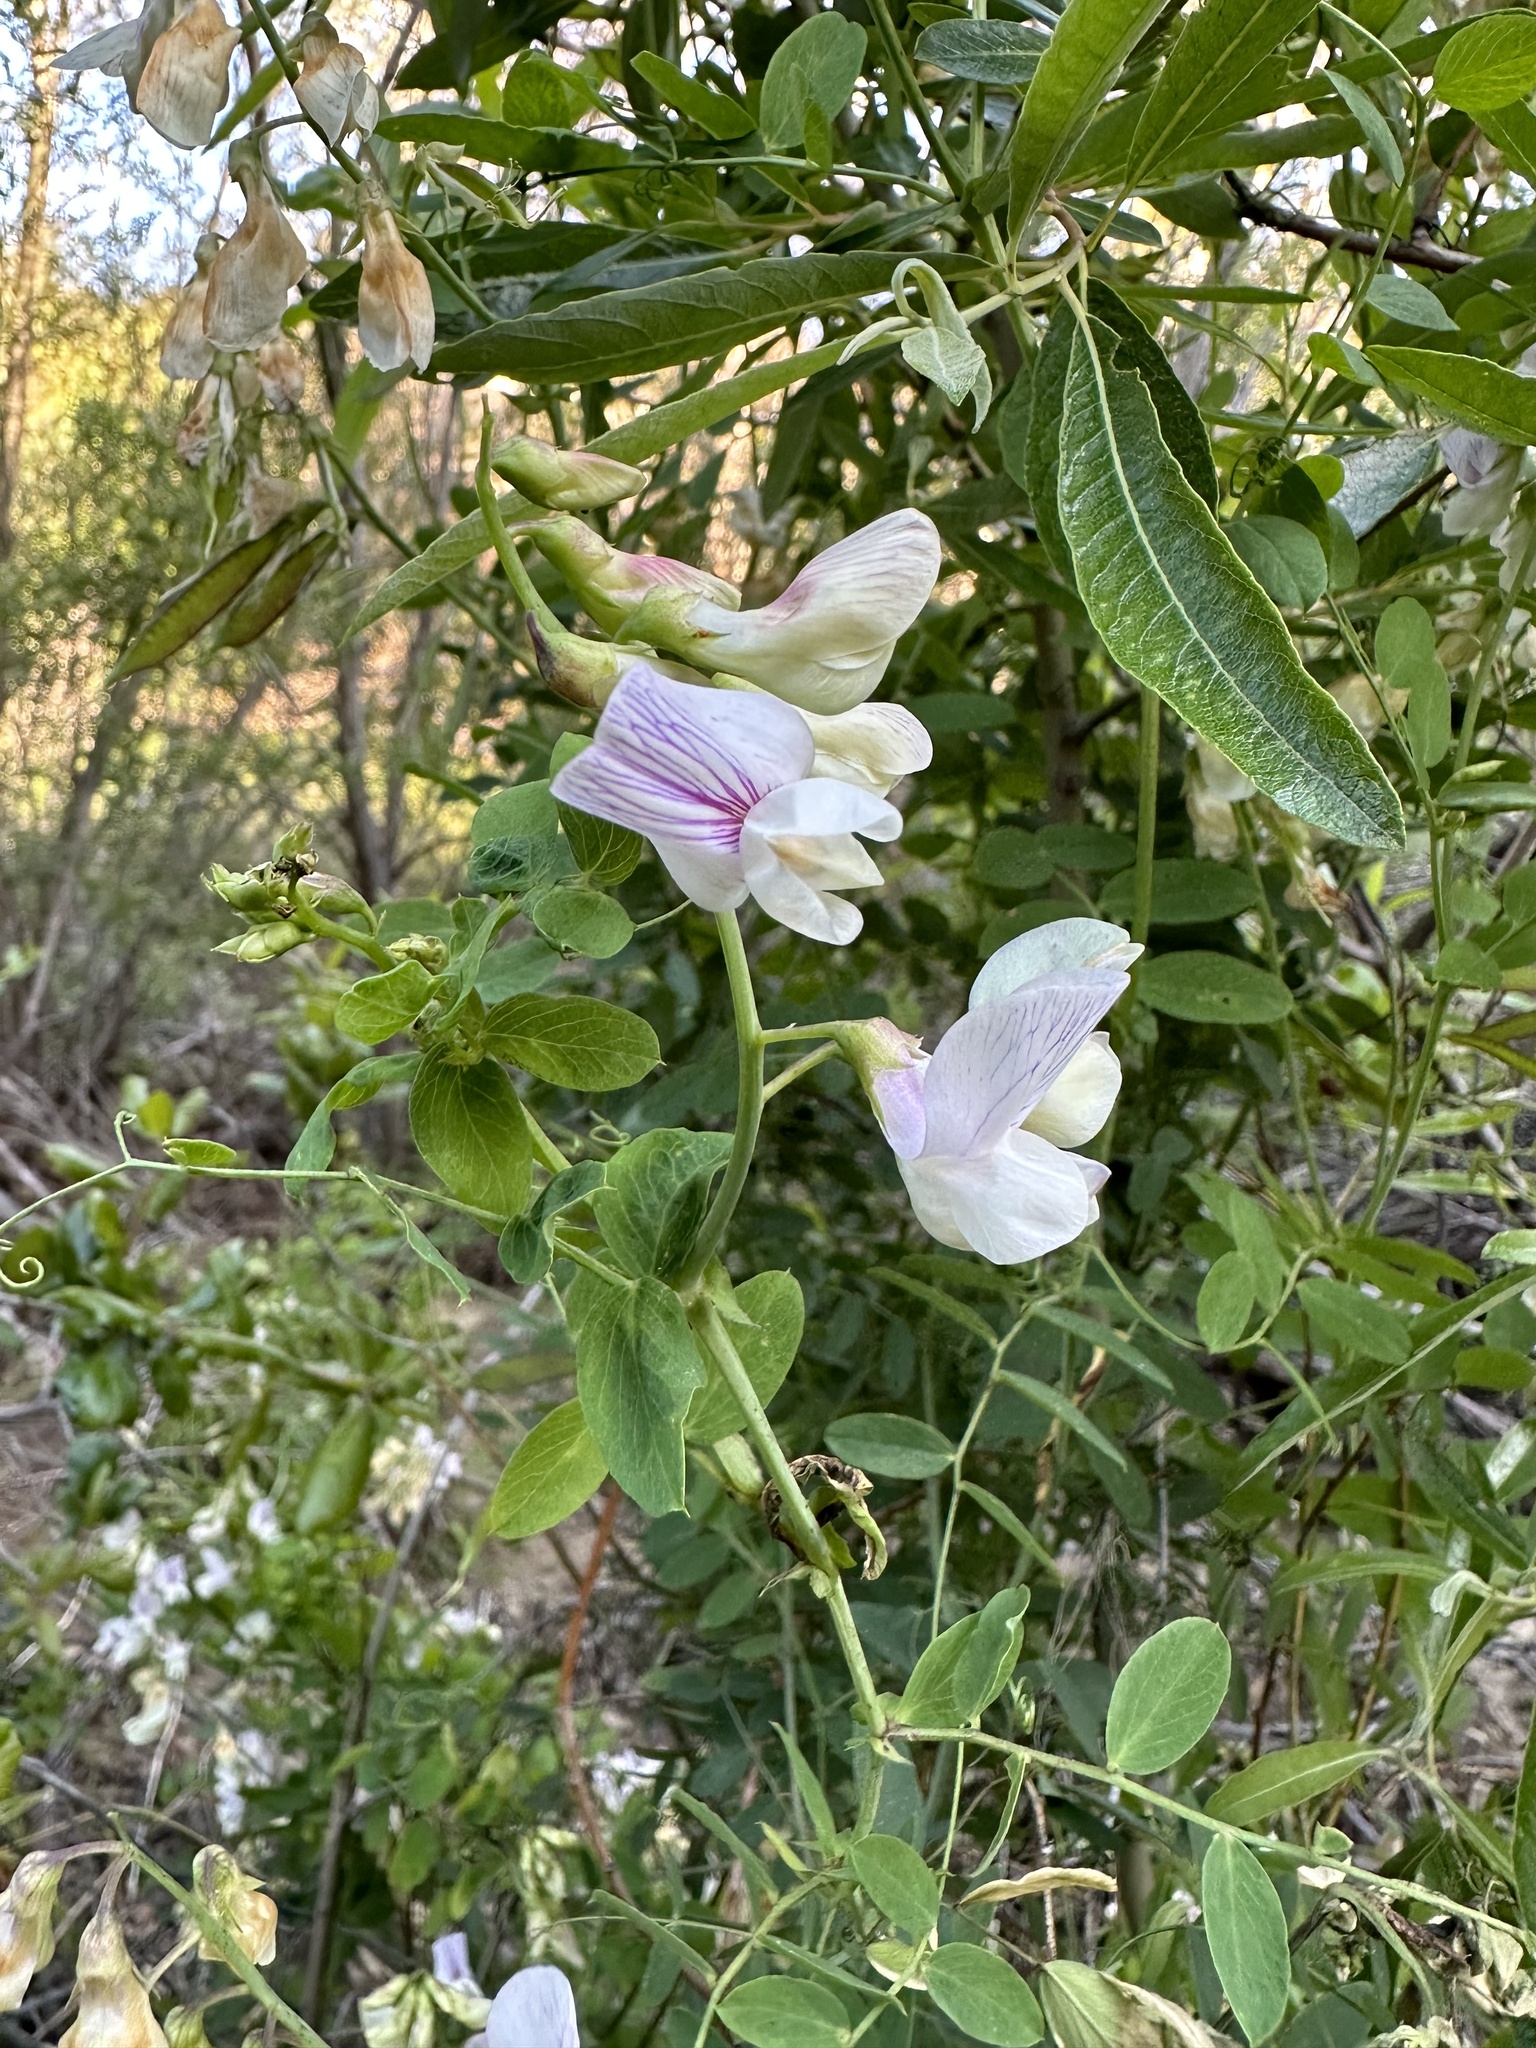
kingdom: Plantae
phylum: Tracheophyta
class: Magnoliopsida
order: Fabales
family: Fabaceae
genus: Lathyrus
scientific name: Lathyrus vestitus
